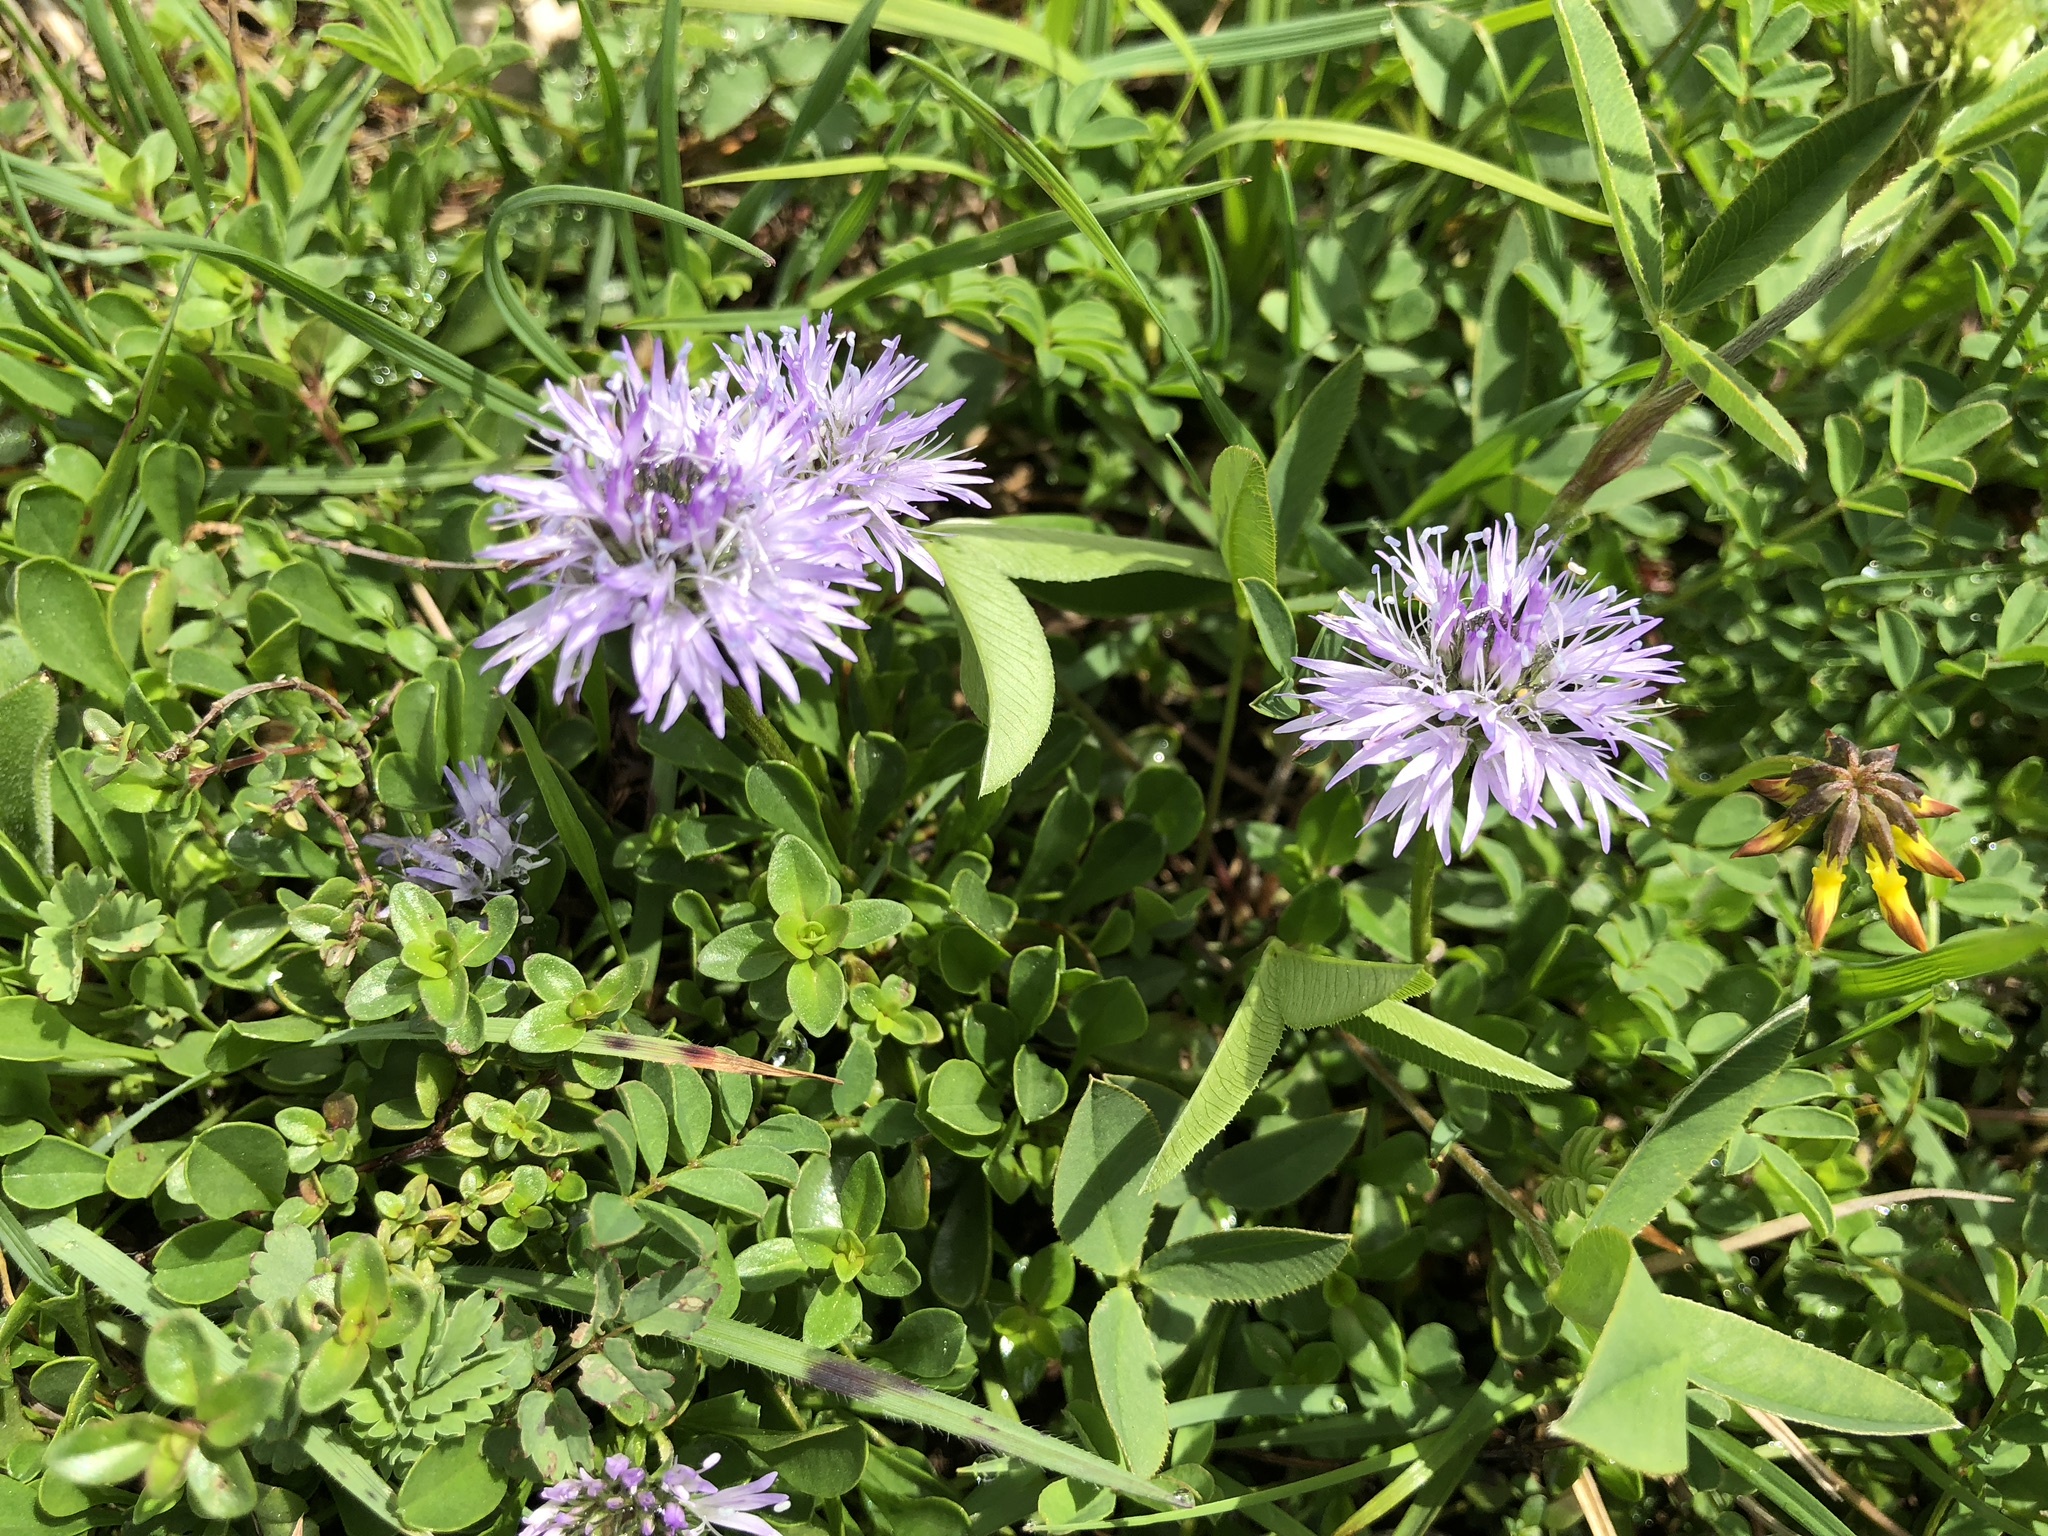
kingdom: Plantae
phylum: Tracheophyta
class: Magnoliopsida
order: Lamiales
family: Plantaginaceae
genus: Globularia
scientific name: Globularia cordifolia
